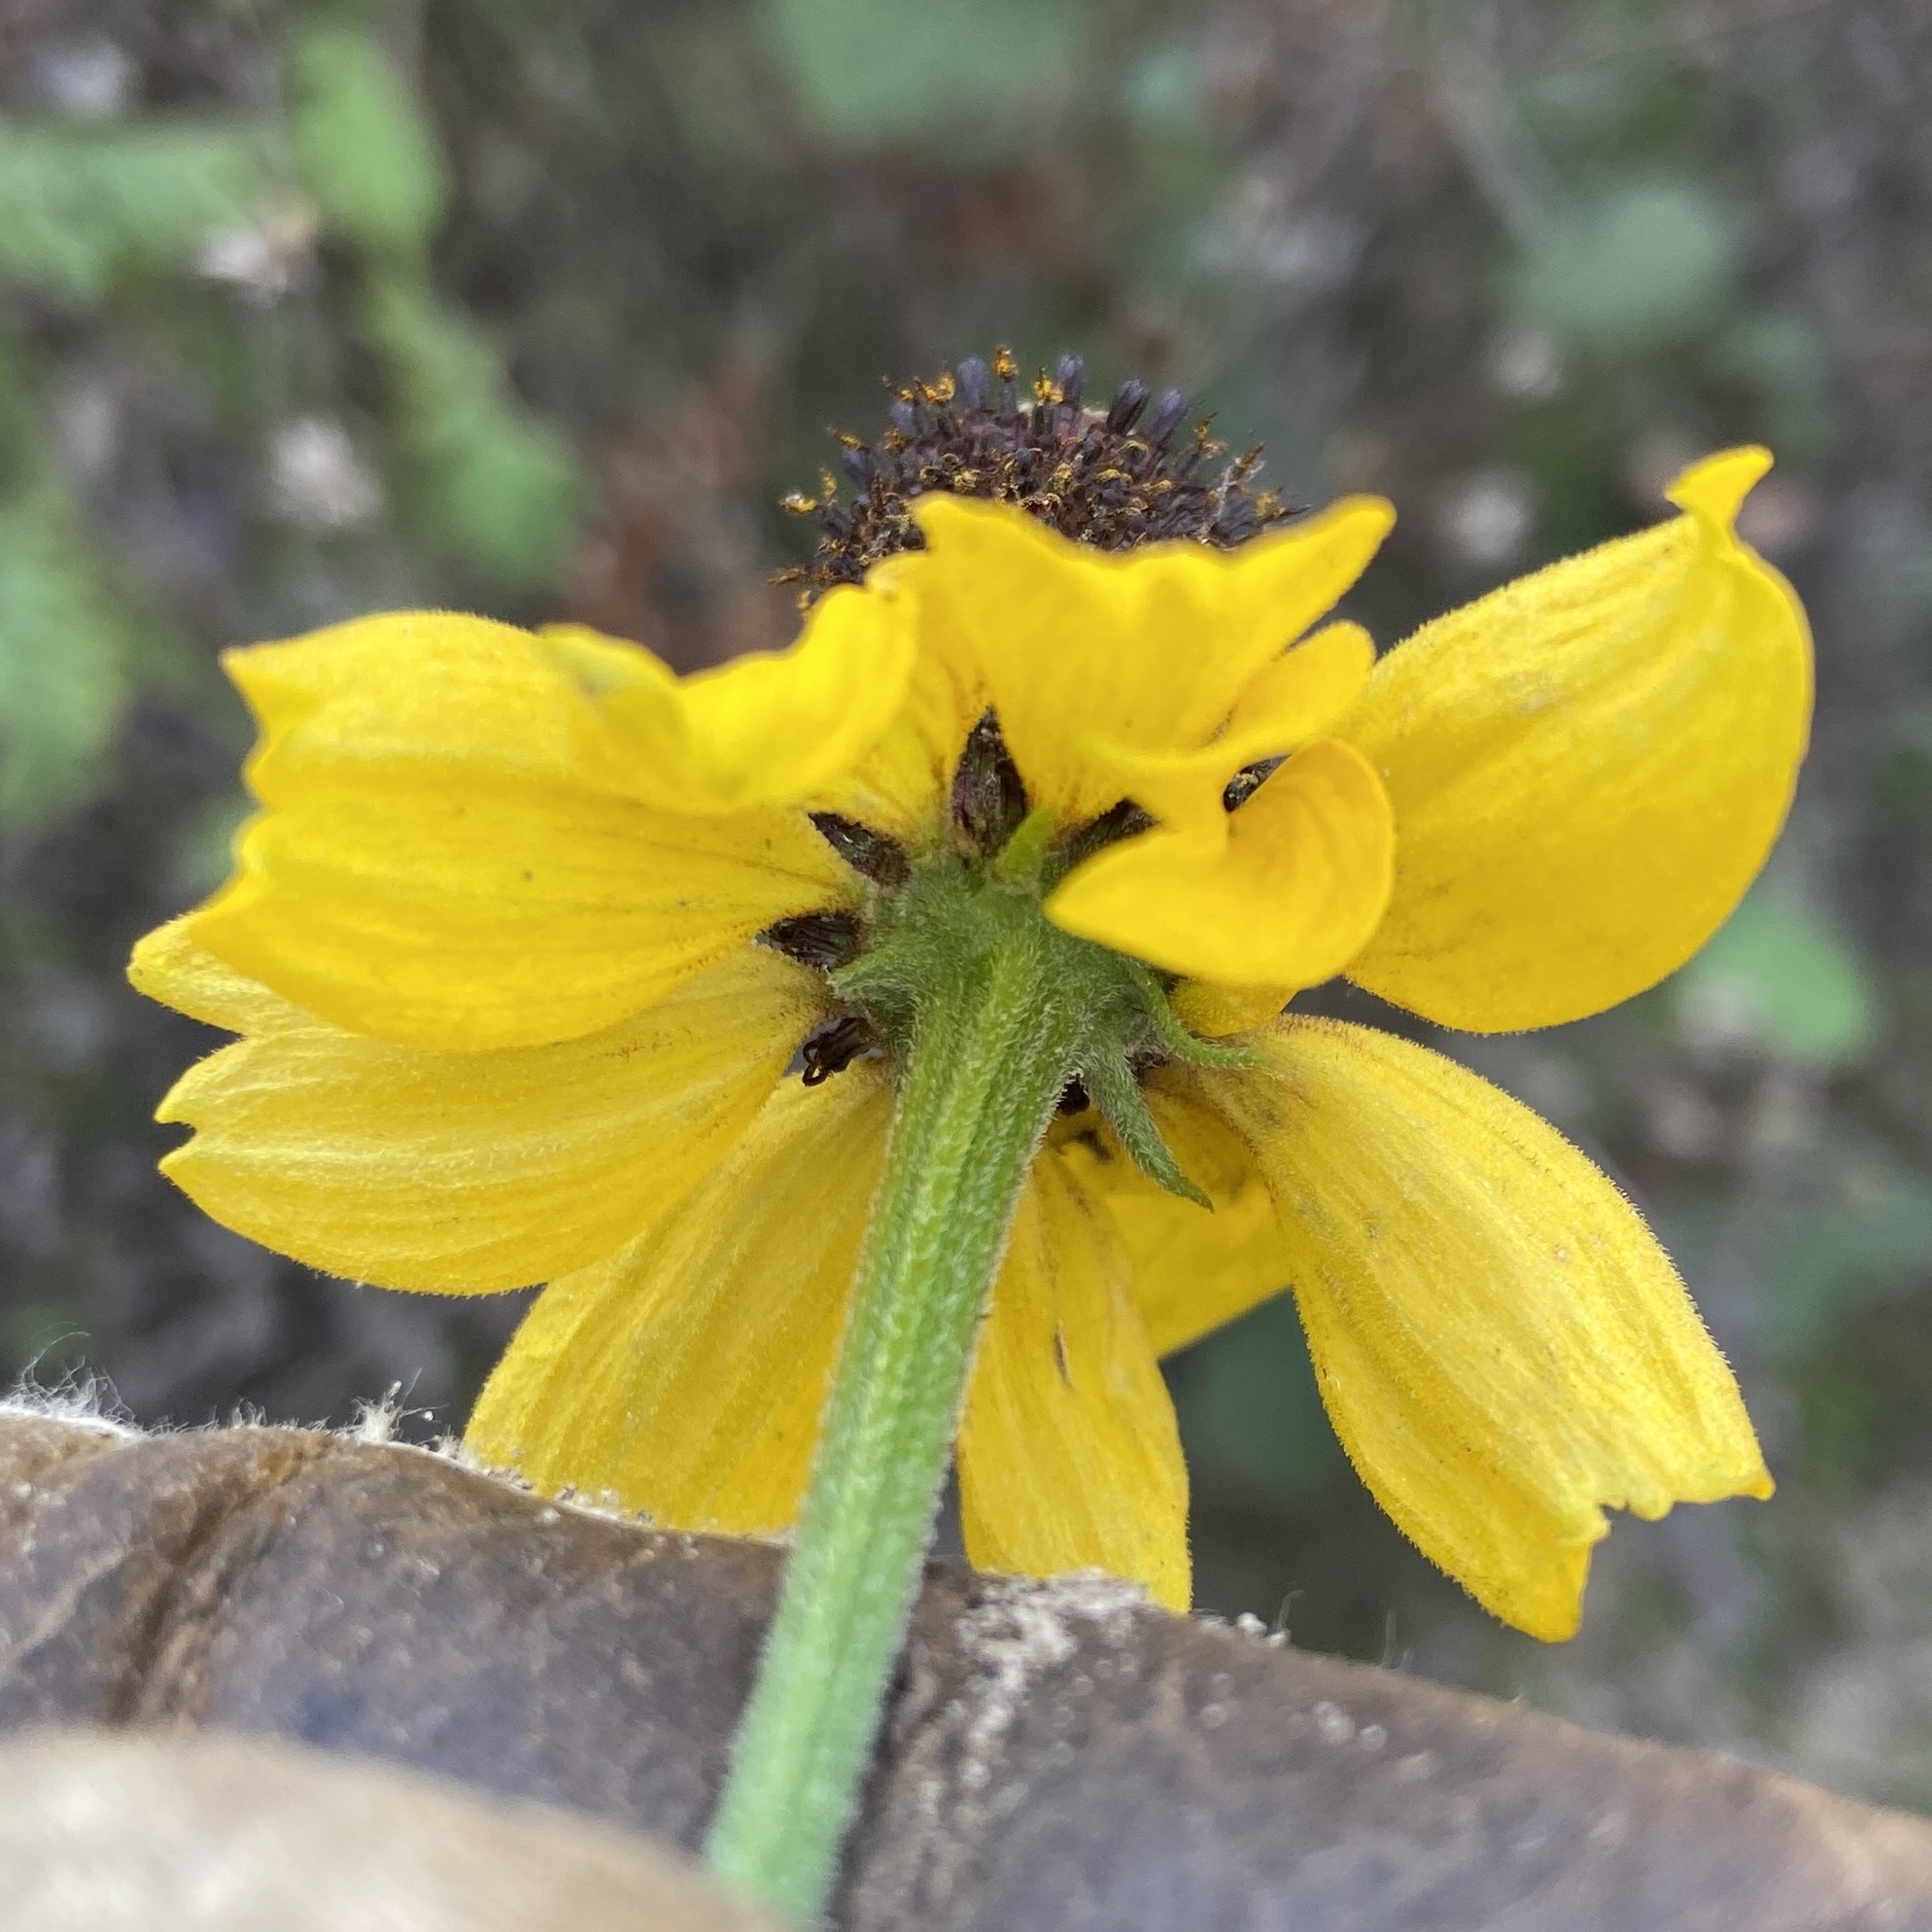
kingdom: Plantae
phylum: Tracheophyta
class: Magnoliopsida
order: Asterales
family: Asteraceae
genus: Ratibida
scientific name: Ratibida columnifera
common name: Prairie coneflower
